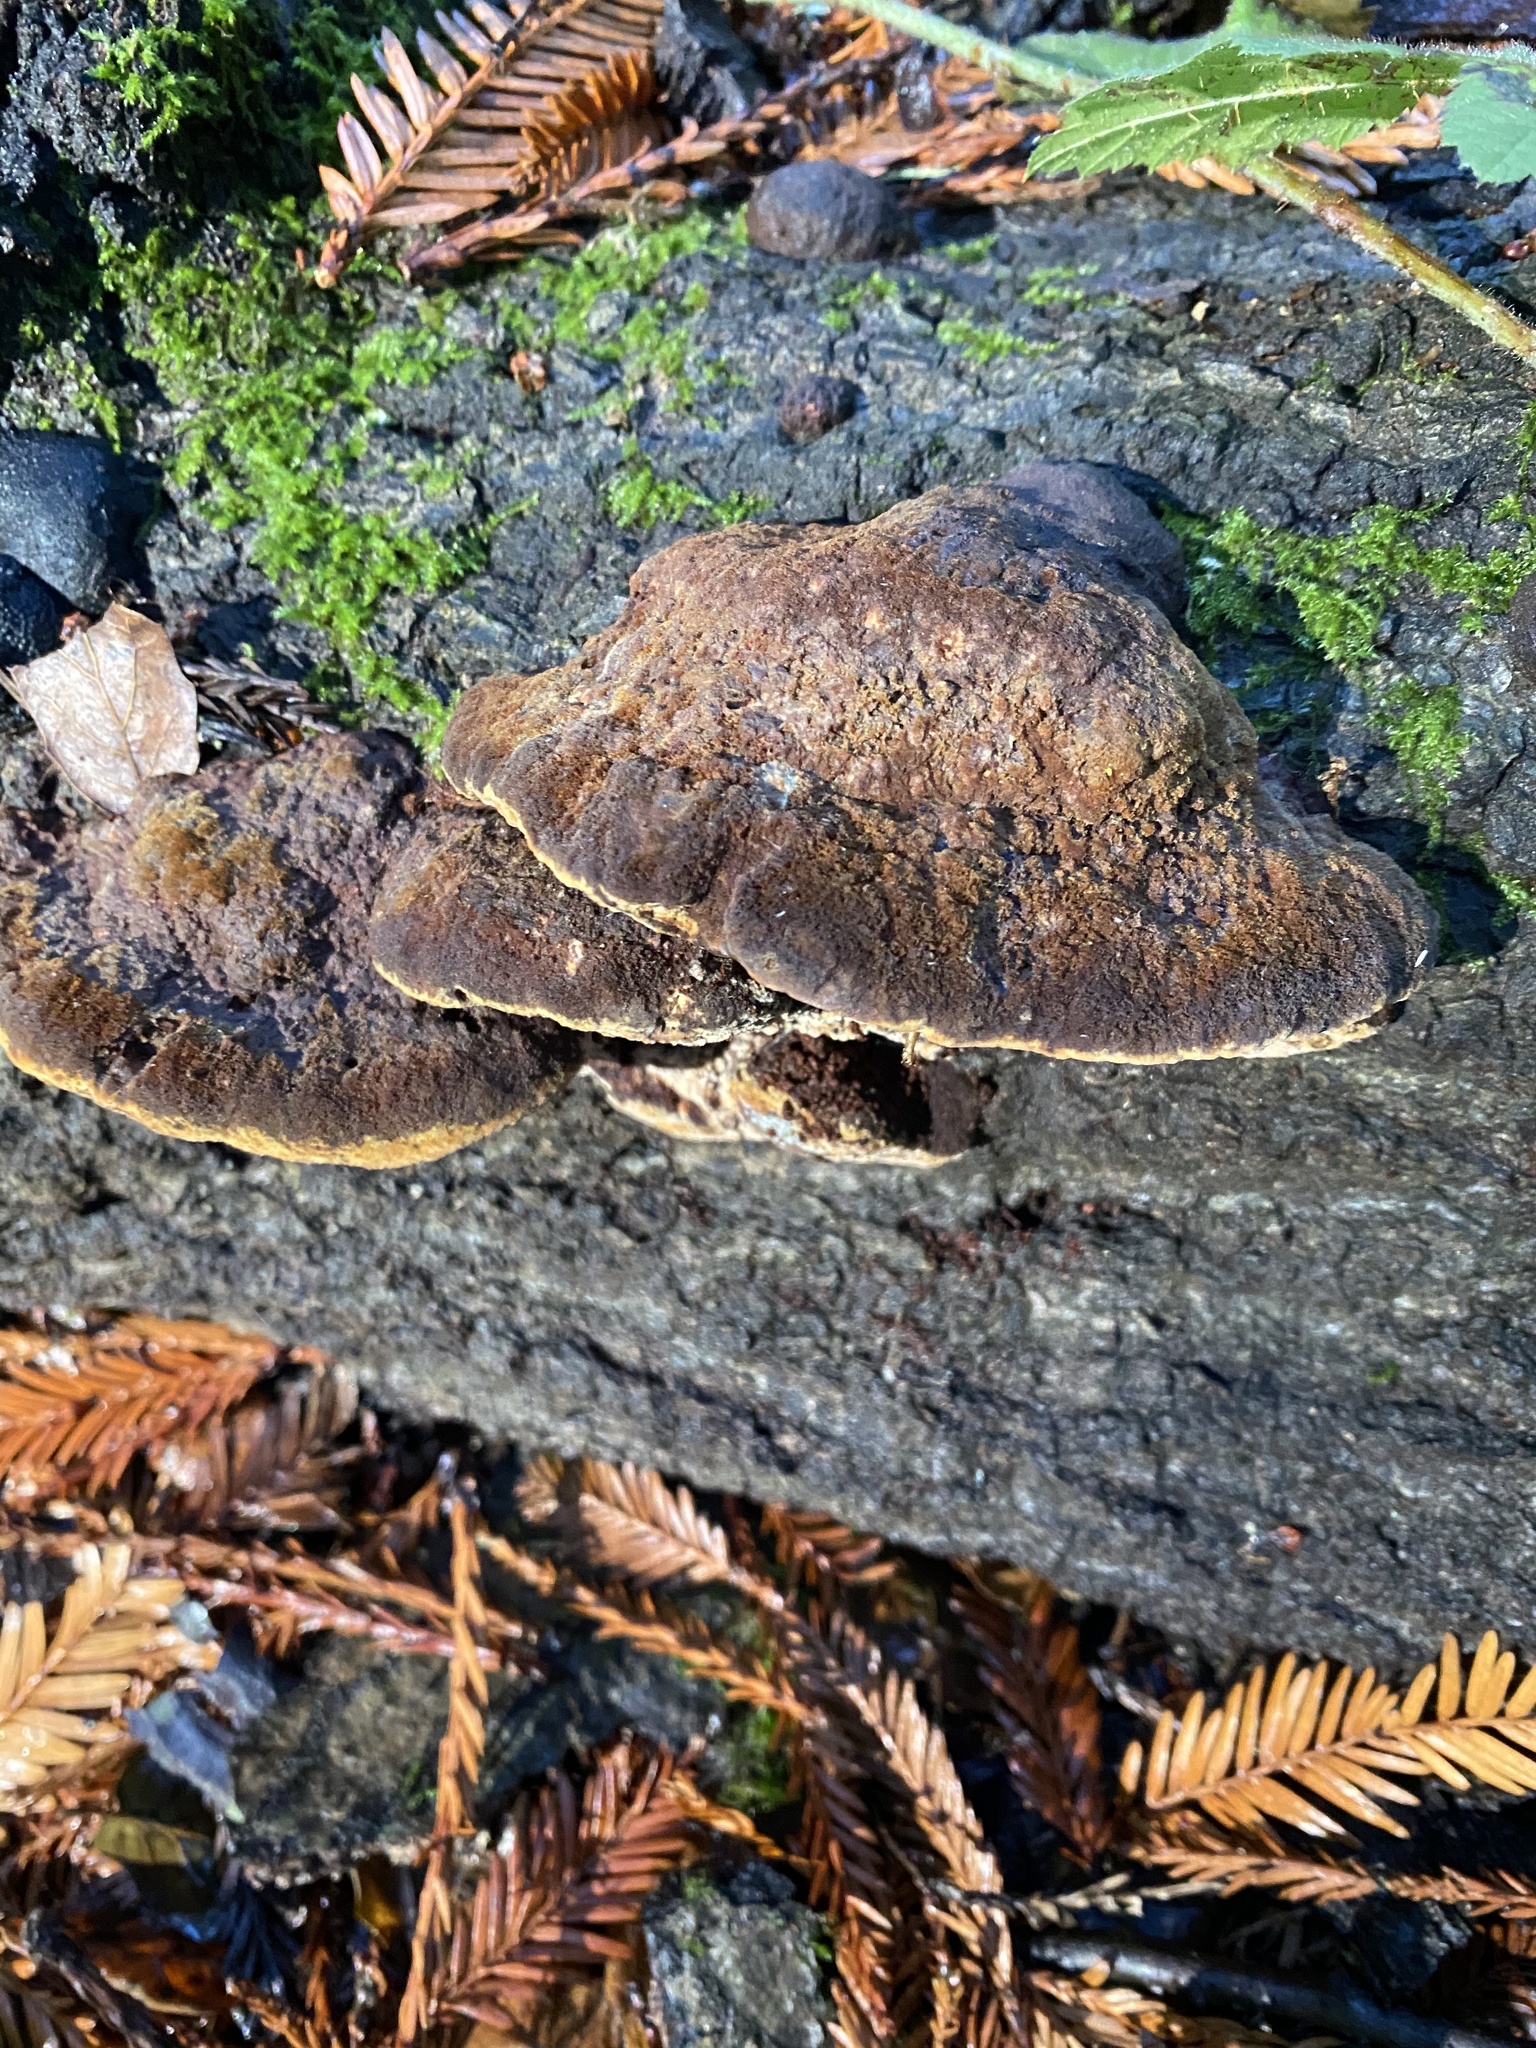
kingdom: Fungi
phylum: Basidiomycota
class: Agaricomycetes
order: Hymenochaetales
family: Hymenochaetaceae
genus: Phellinus
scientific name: Phellinus gilvus
